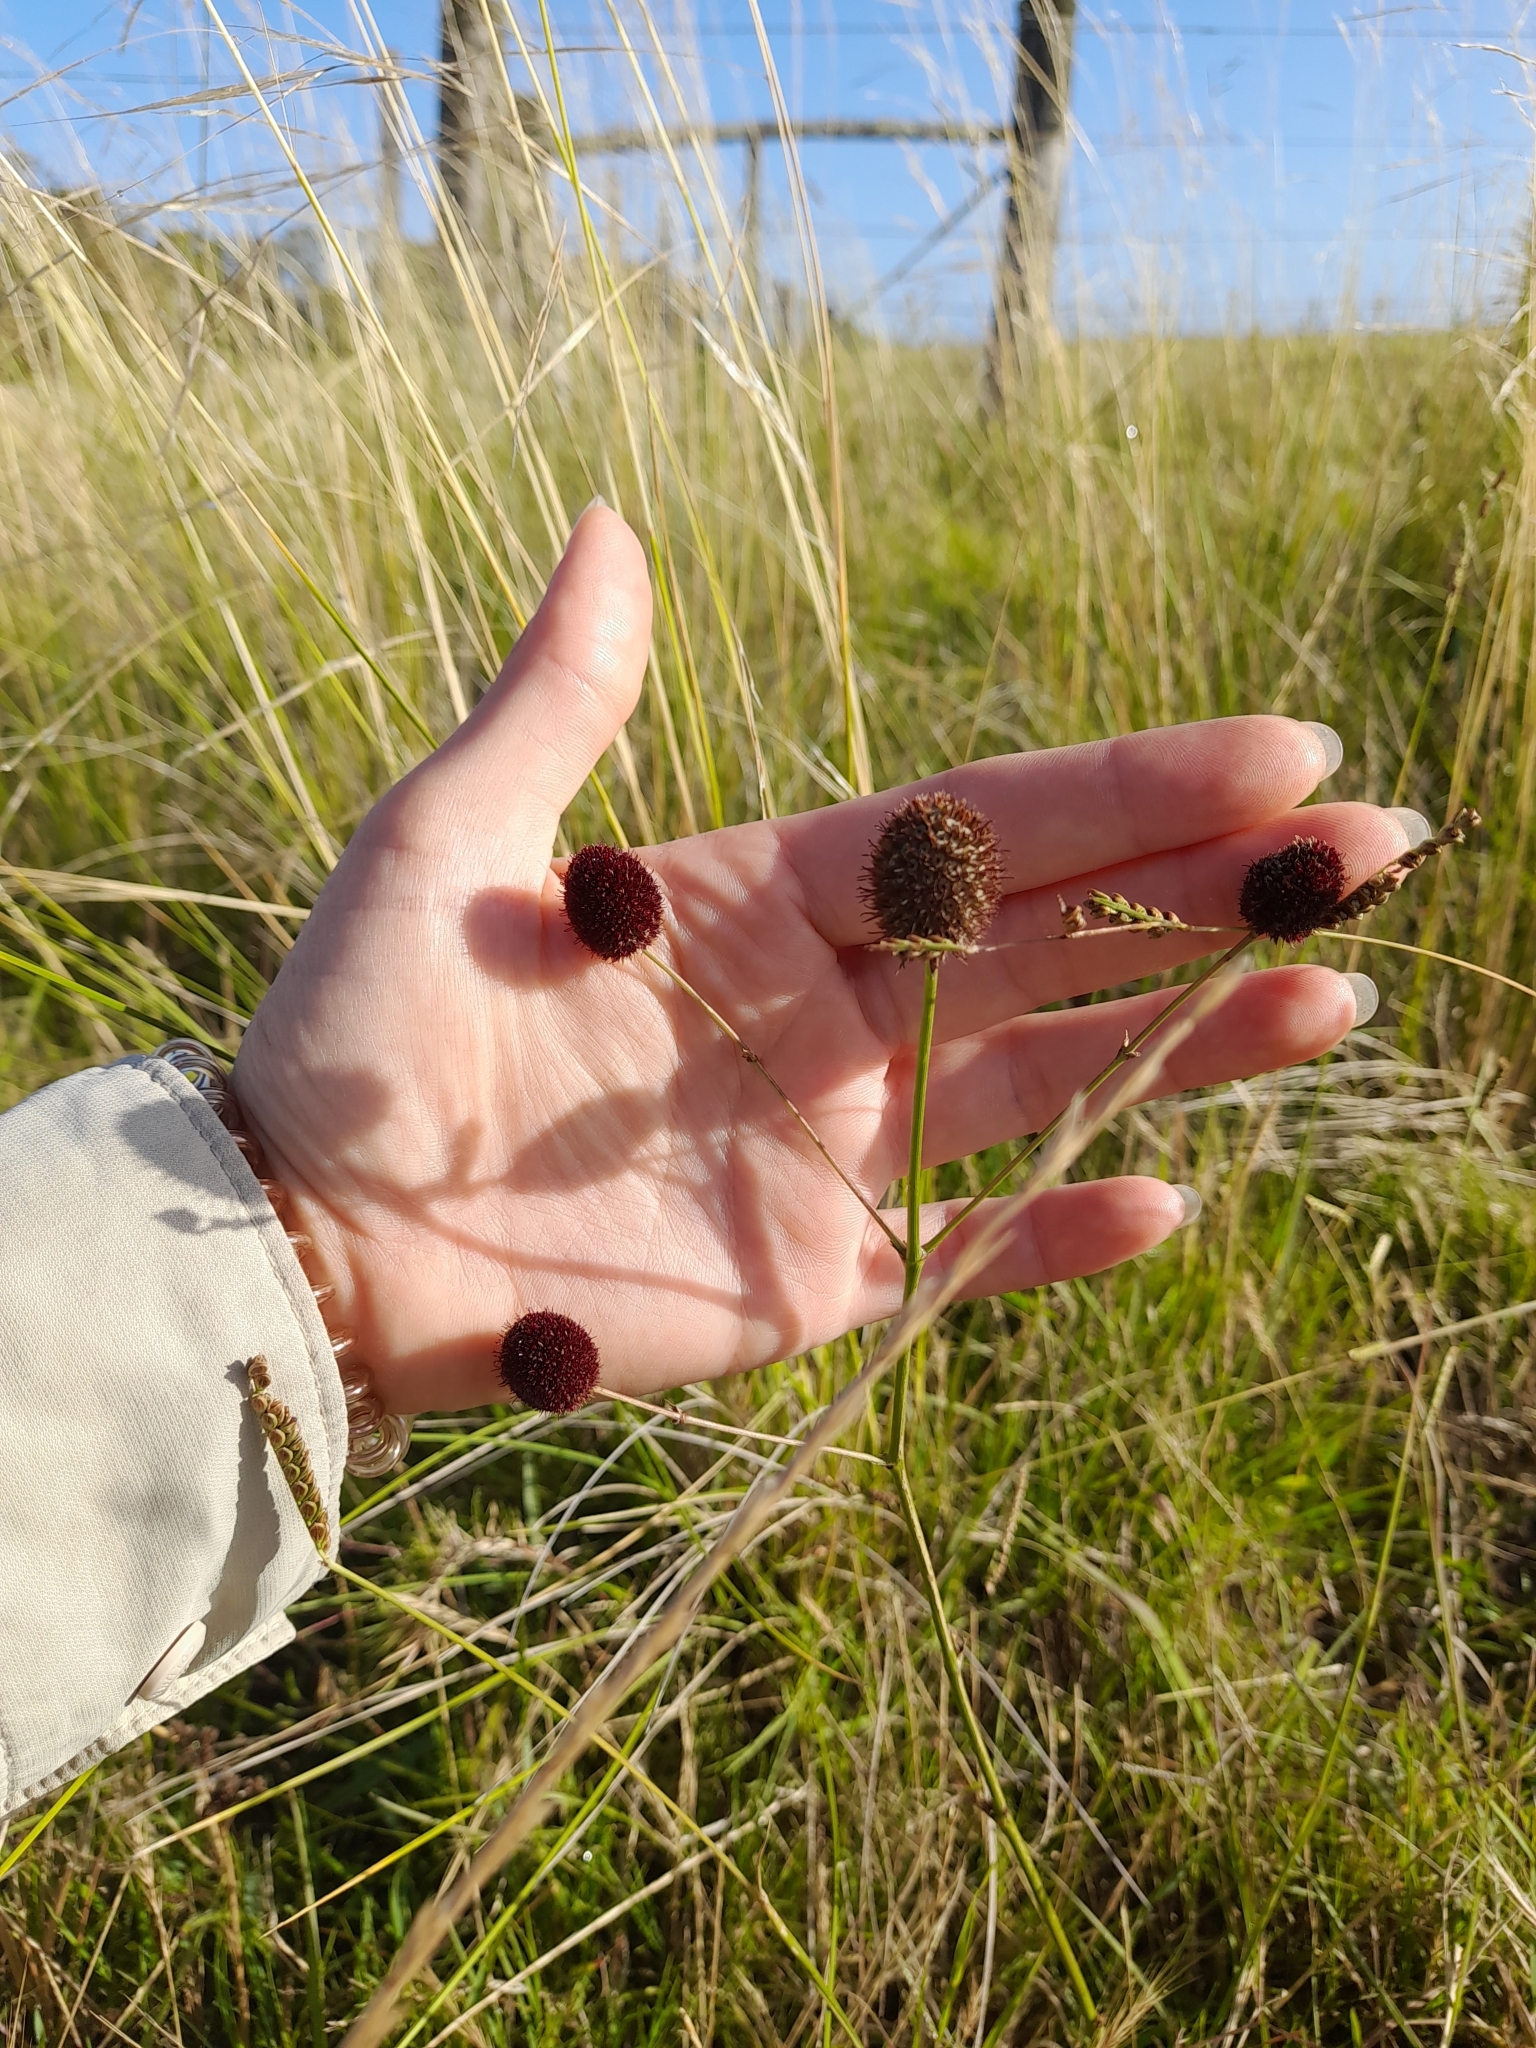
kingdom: Plantae
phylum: Tracheophyta
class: Magnoliopsida
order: Apiales
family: Apiaceae
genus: Eryngium
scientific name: Eryngium sanguisorba
